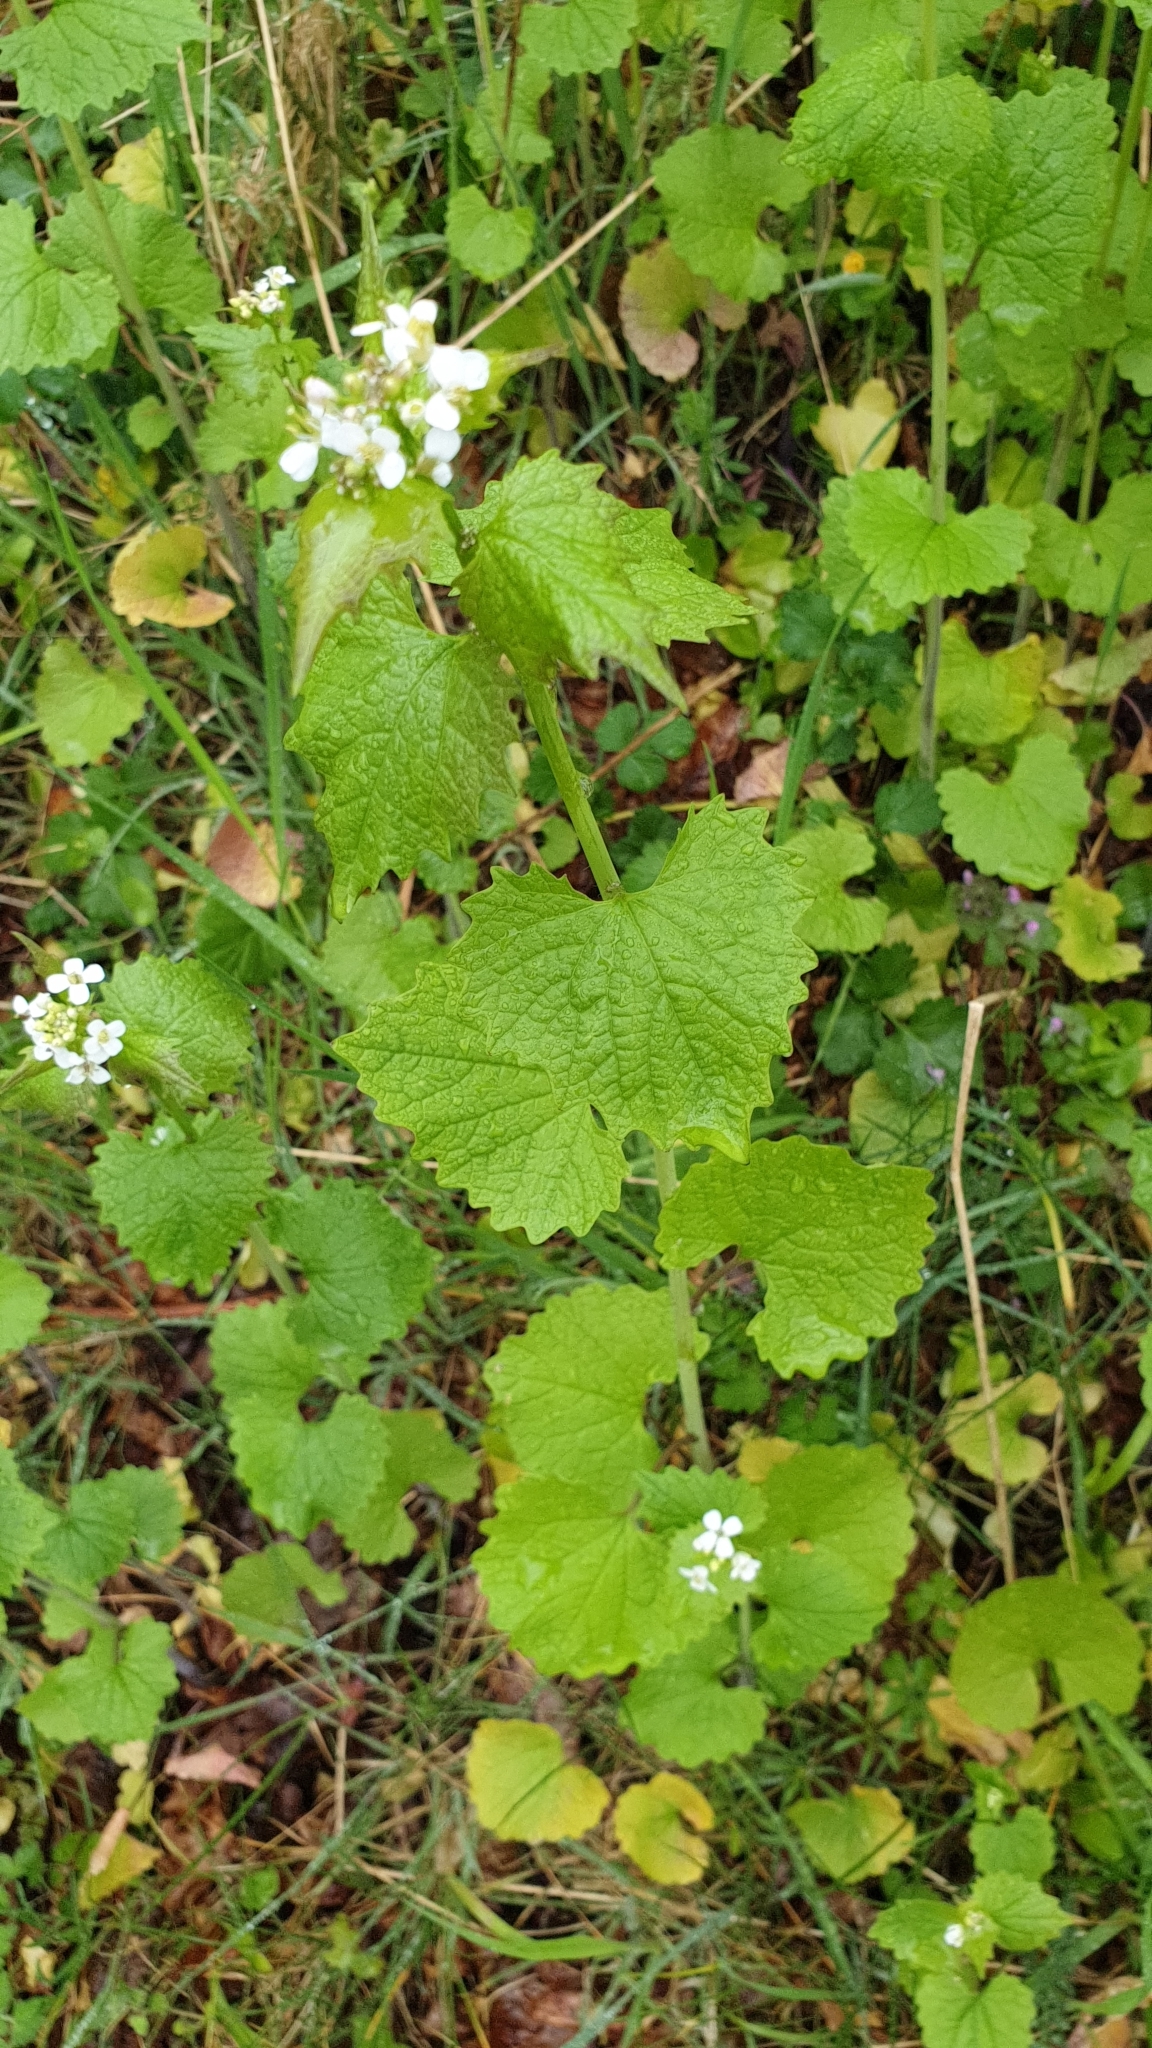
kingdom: Plantae
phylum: Tracheophyta
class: Magnoliopsida
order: Brassicales
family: Brassicaceae
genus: Alliaria
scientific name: Alliaria petiolata
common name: Garlic mustard
